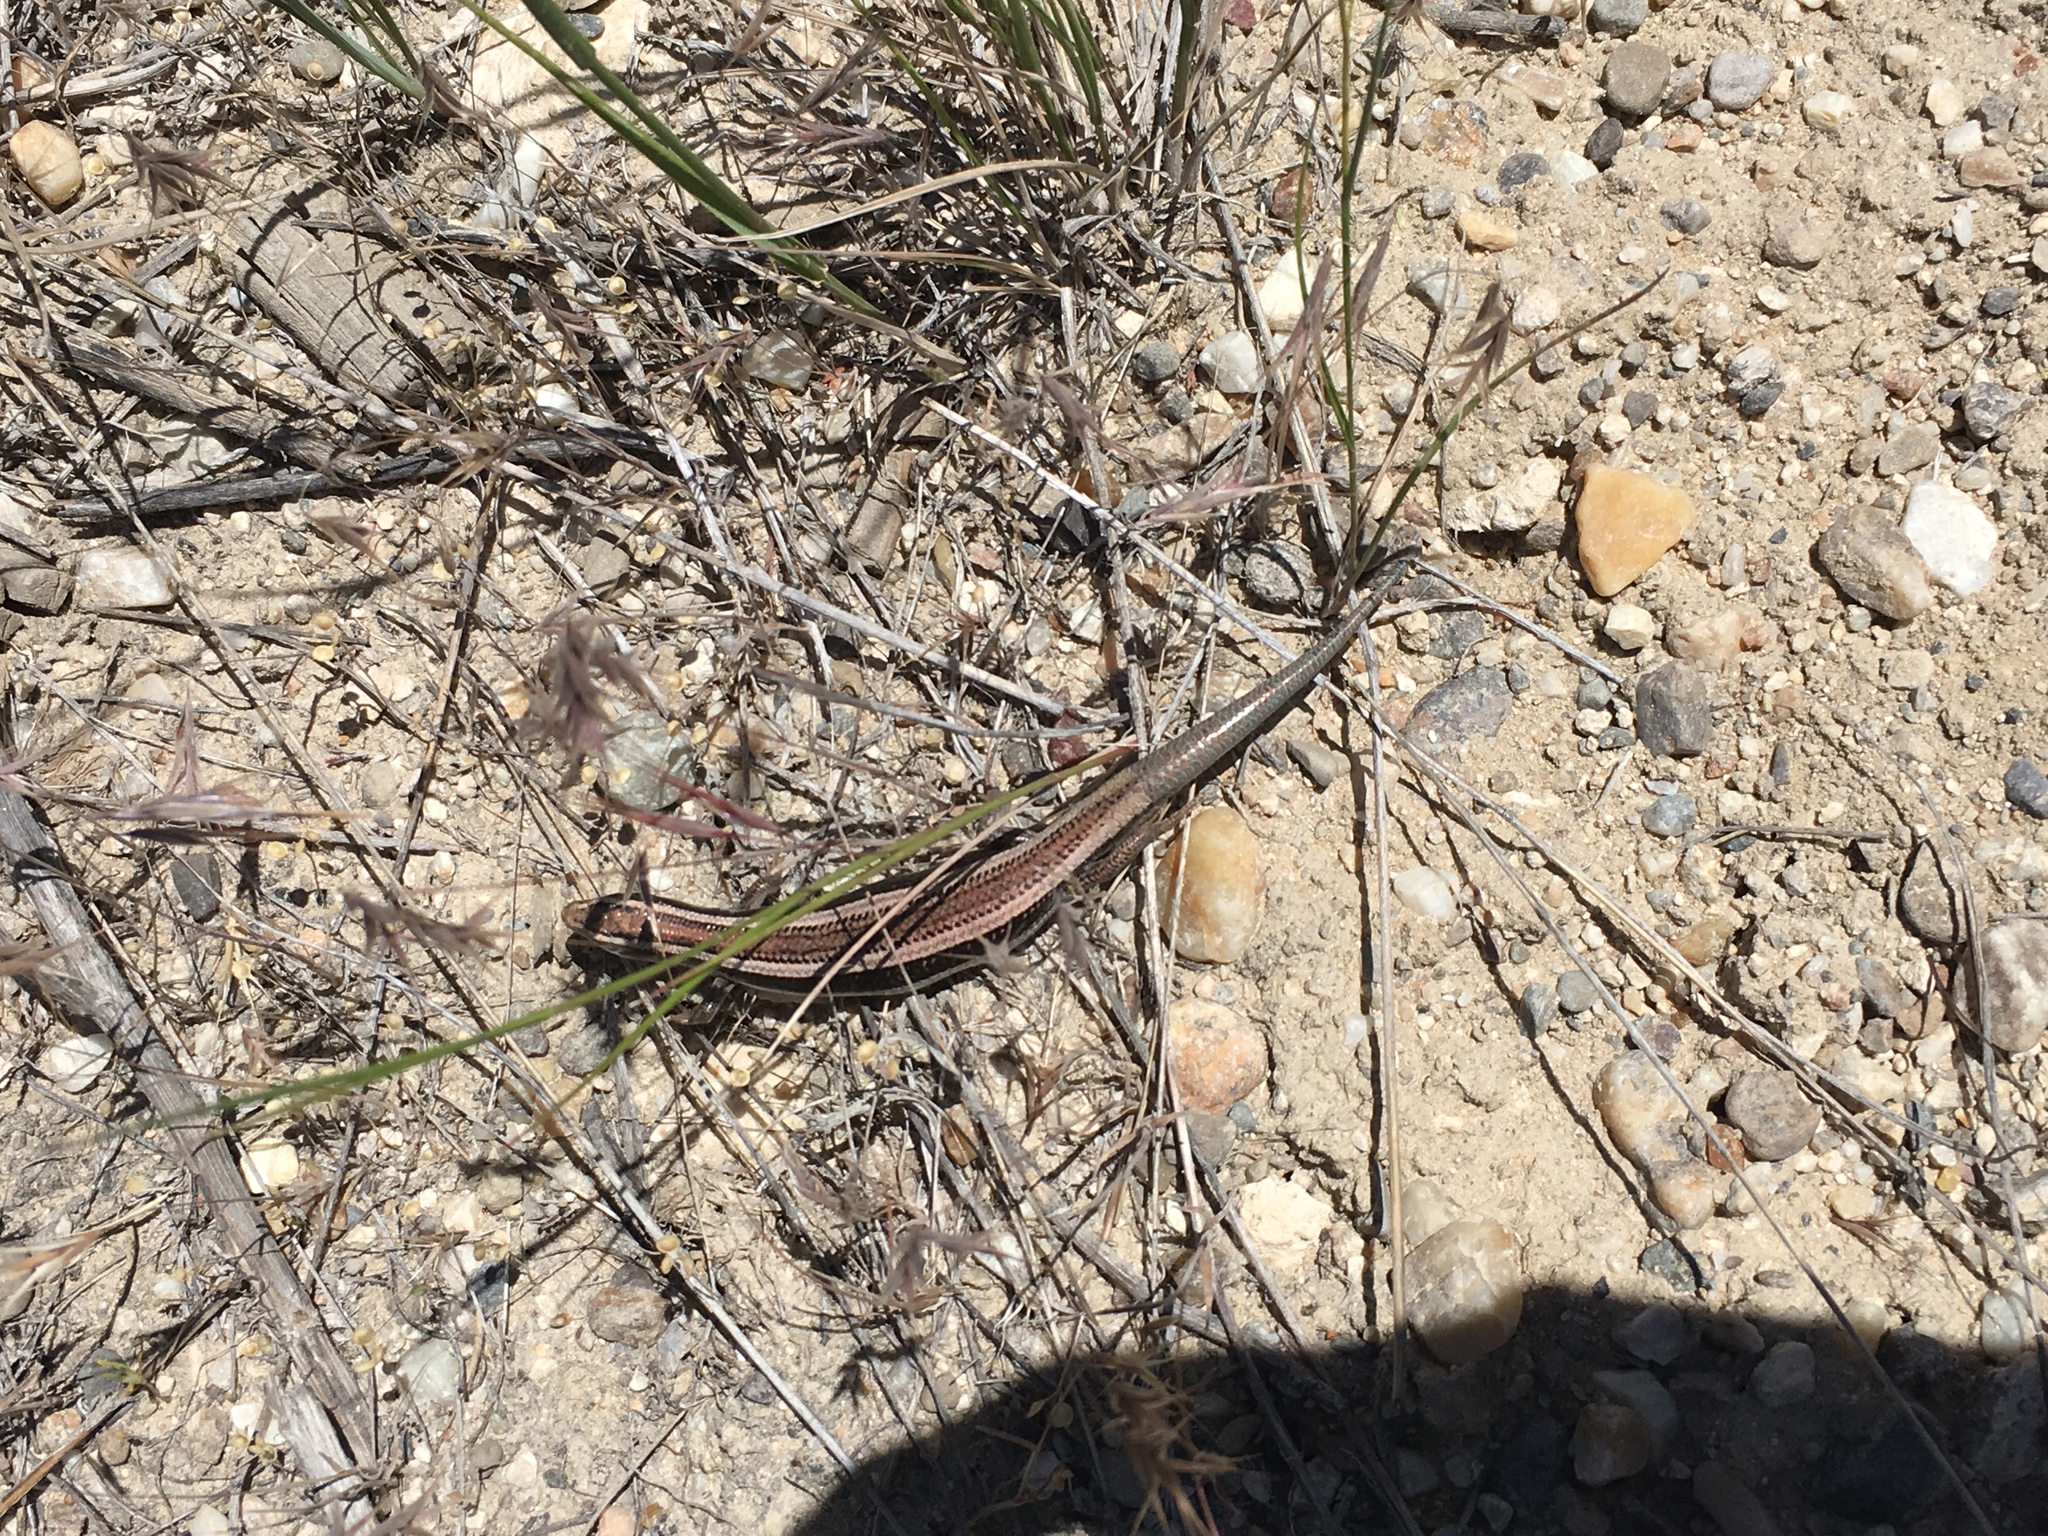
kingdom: Animalia
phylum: Chordata
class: Squamata
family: Scincidae
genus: Plestiodon
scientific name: Plestiodon skiltonianus
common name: Coronado island skink [interparietalis]
